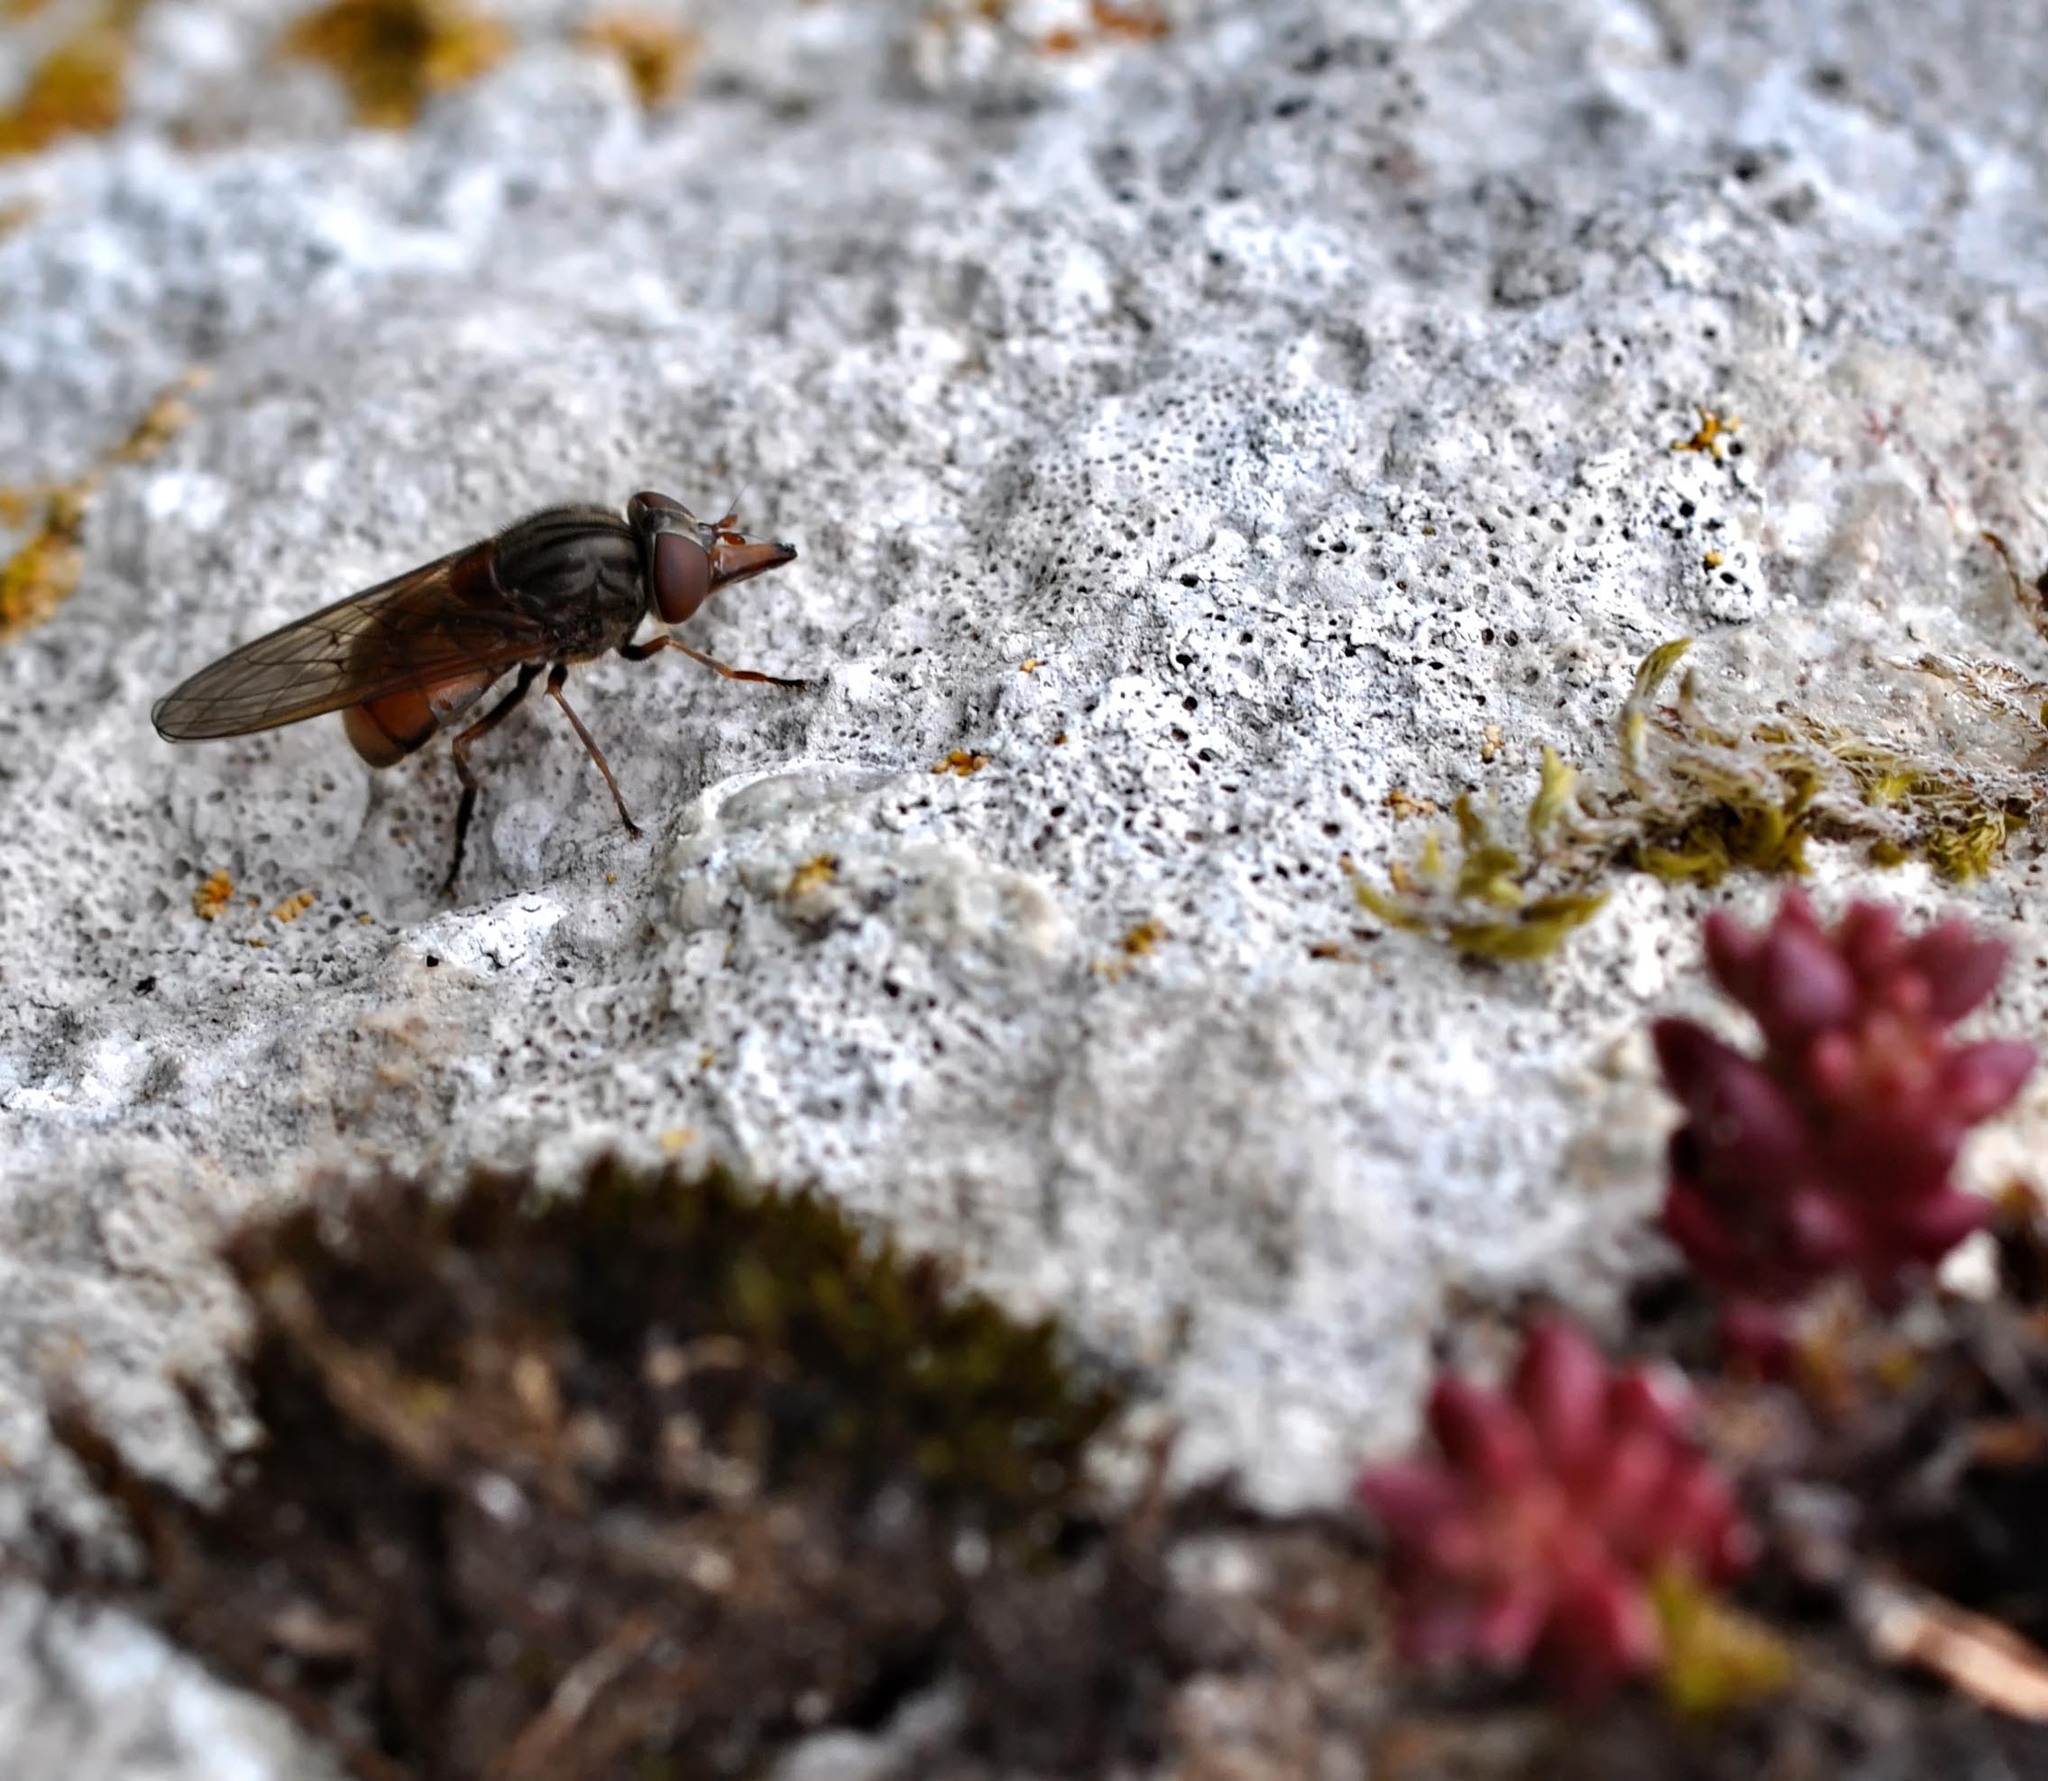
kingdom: Animalia
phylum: Arthropoda
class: Insecta
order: Diptera
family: Syrphidae
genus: Rhingia
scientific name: Rhingia campestris
